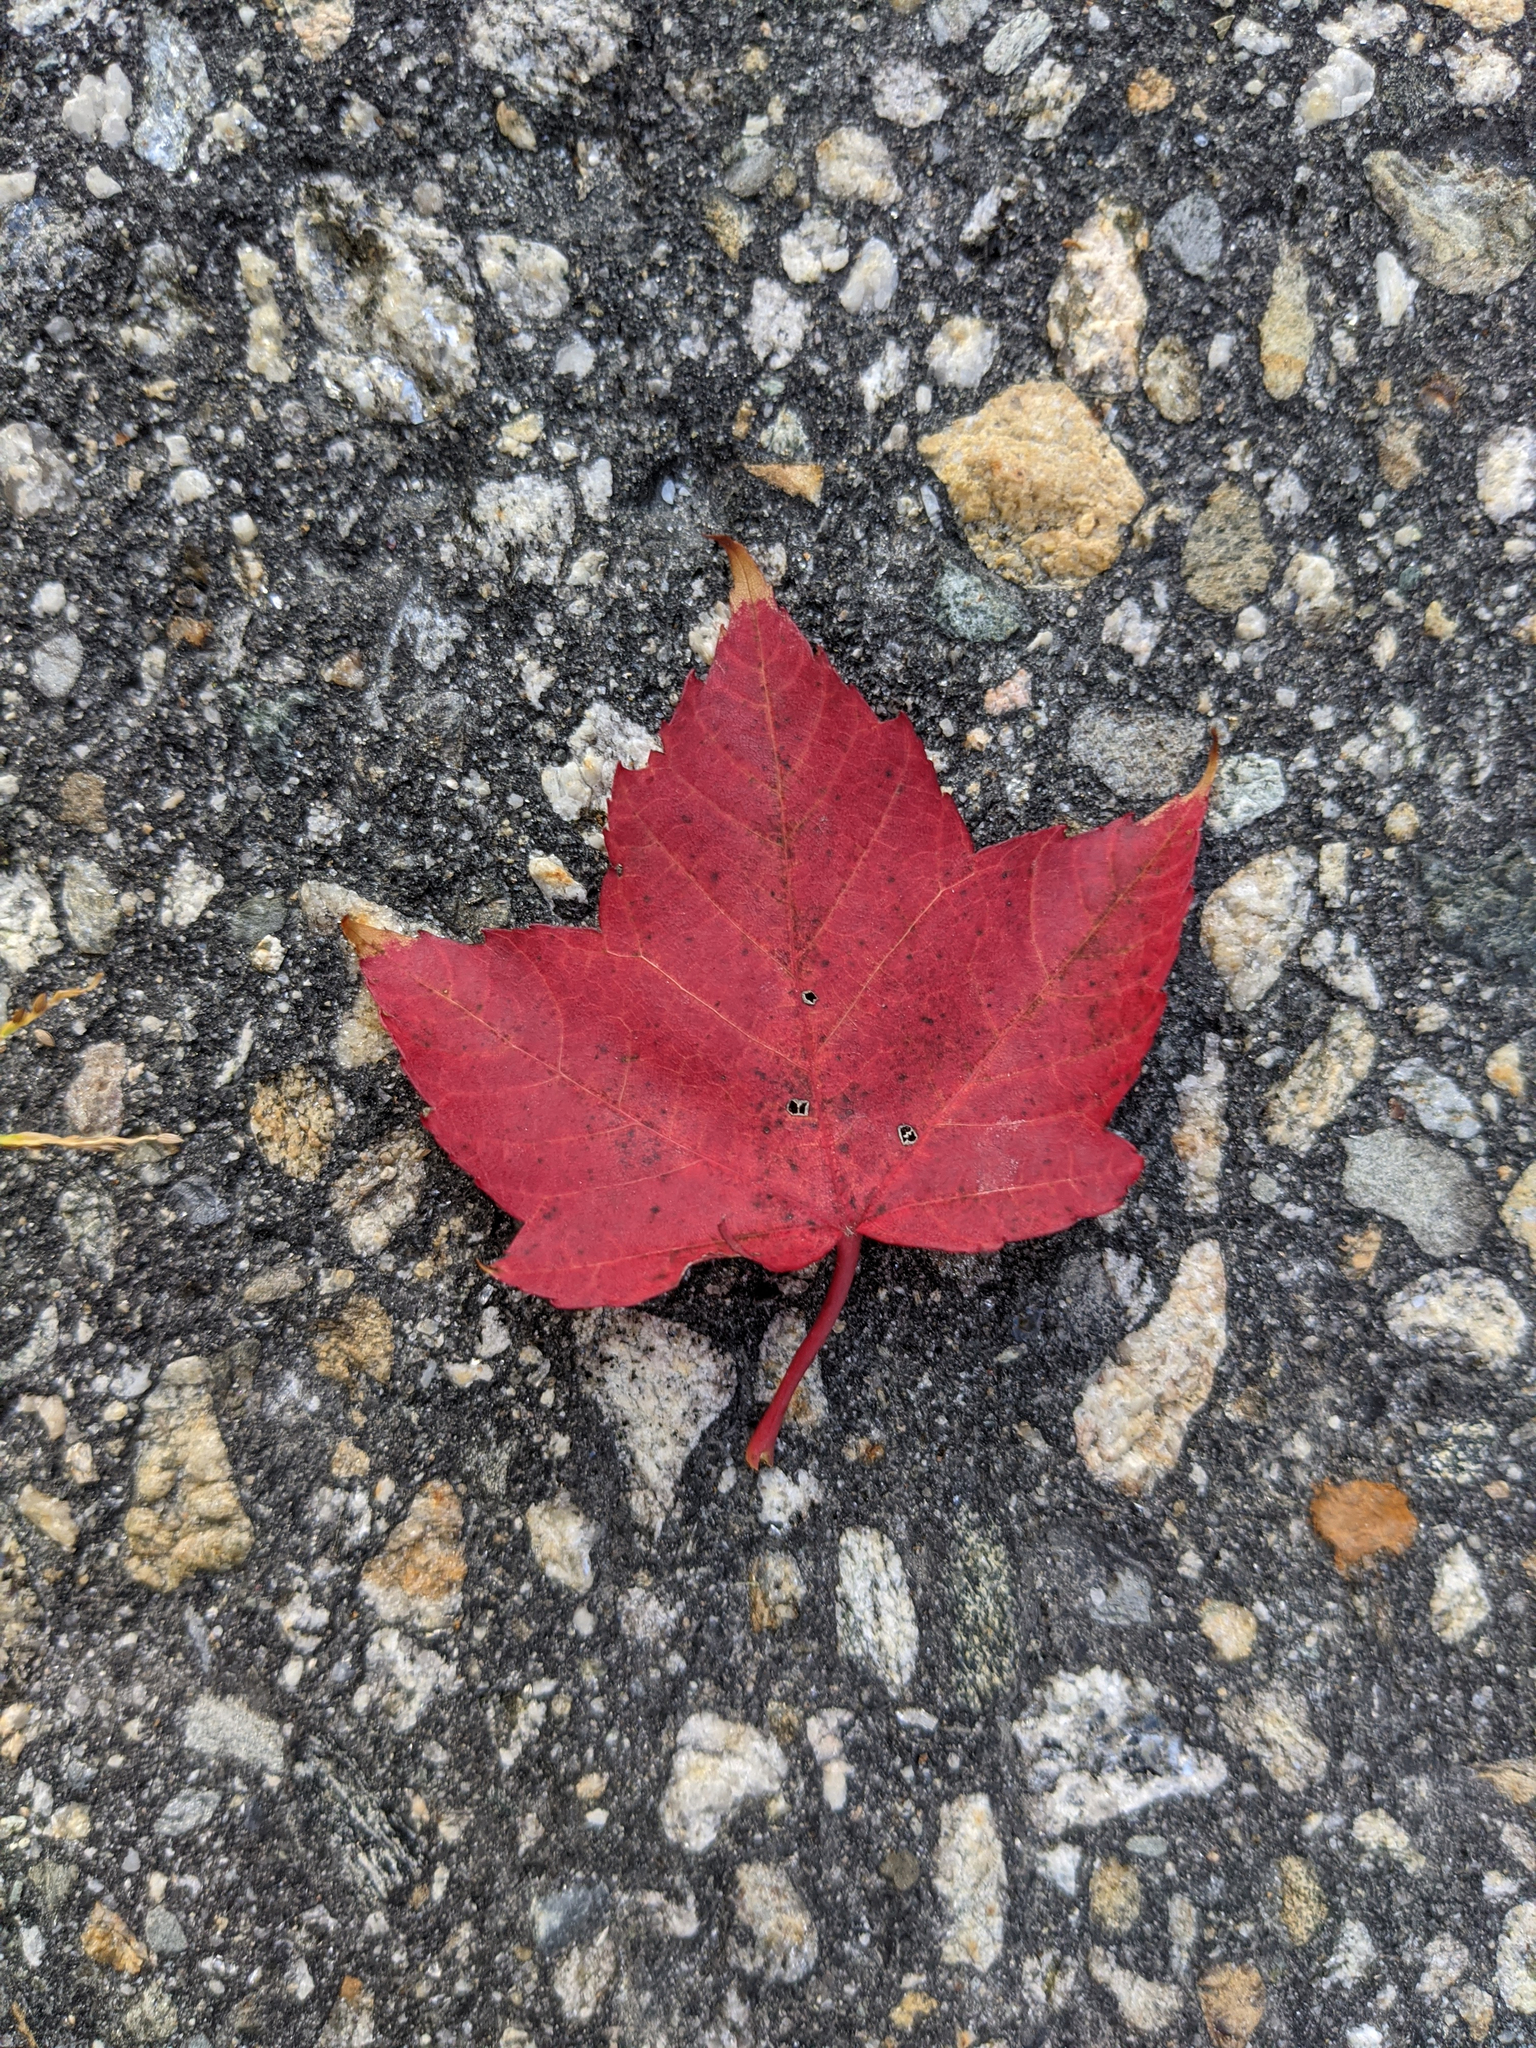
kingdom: Plantae
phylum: Tracheophyta
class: Magnoliopsida
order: Sapindales
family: Sapindaceae
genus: Acer
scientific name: Acer rubrum
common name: Red maple
